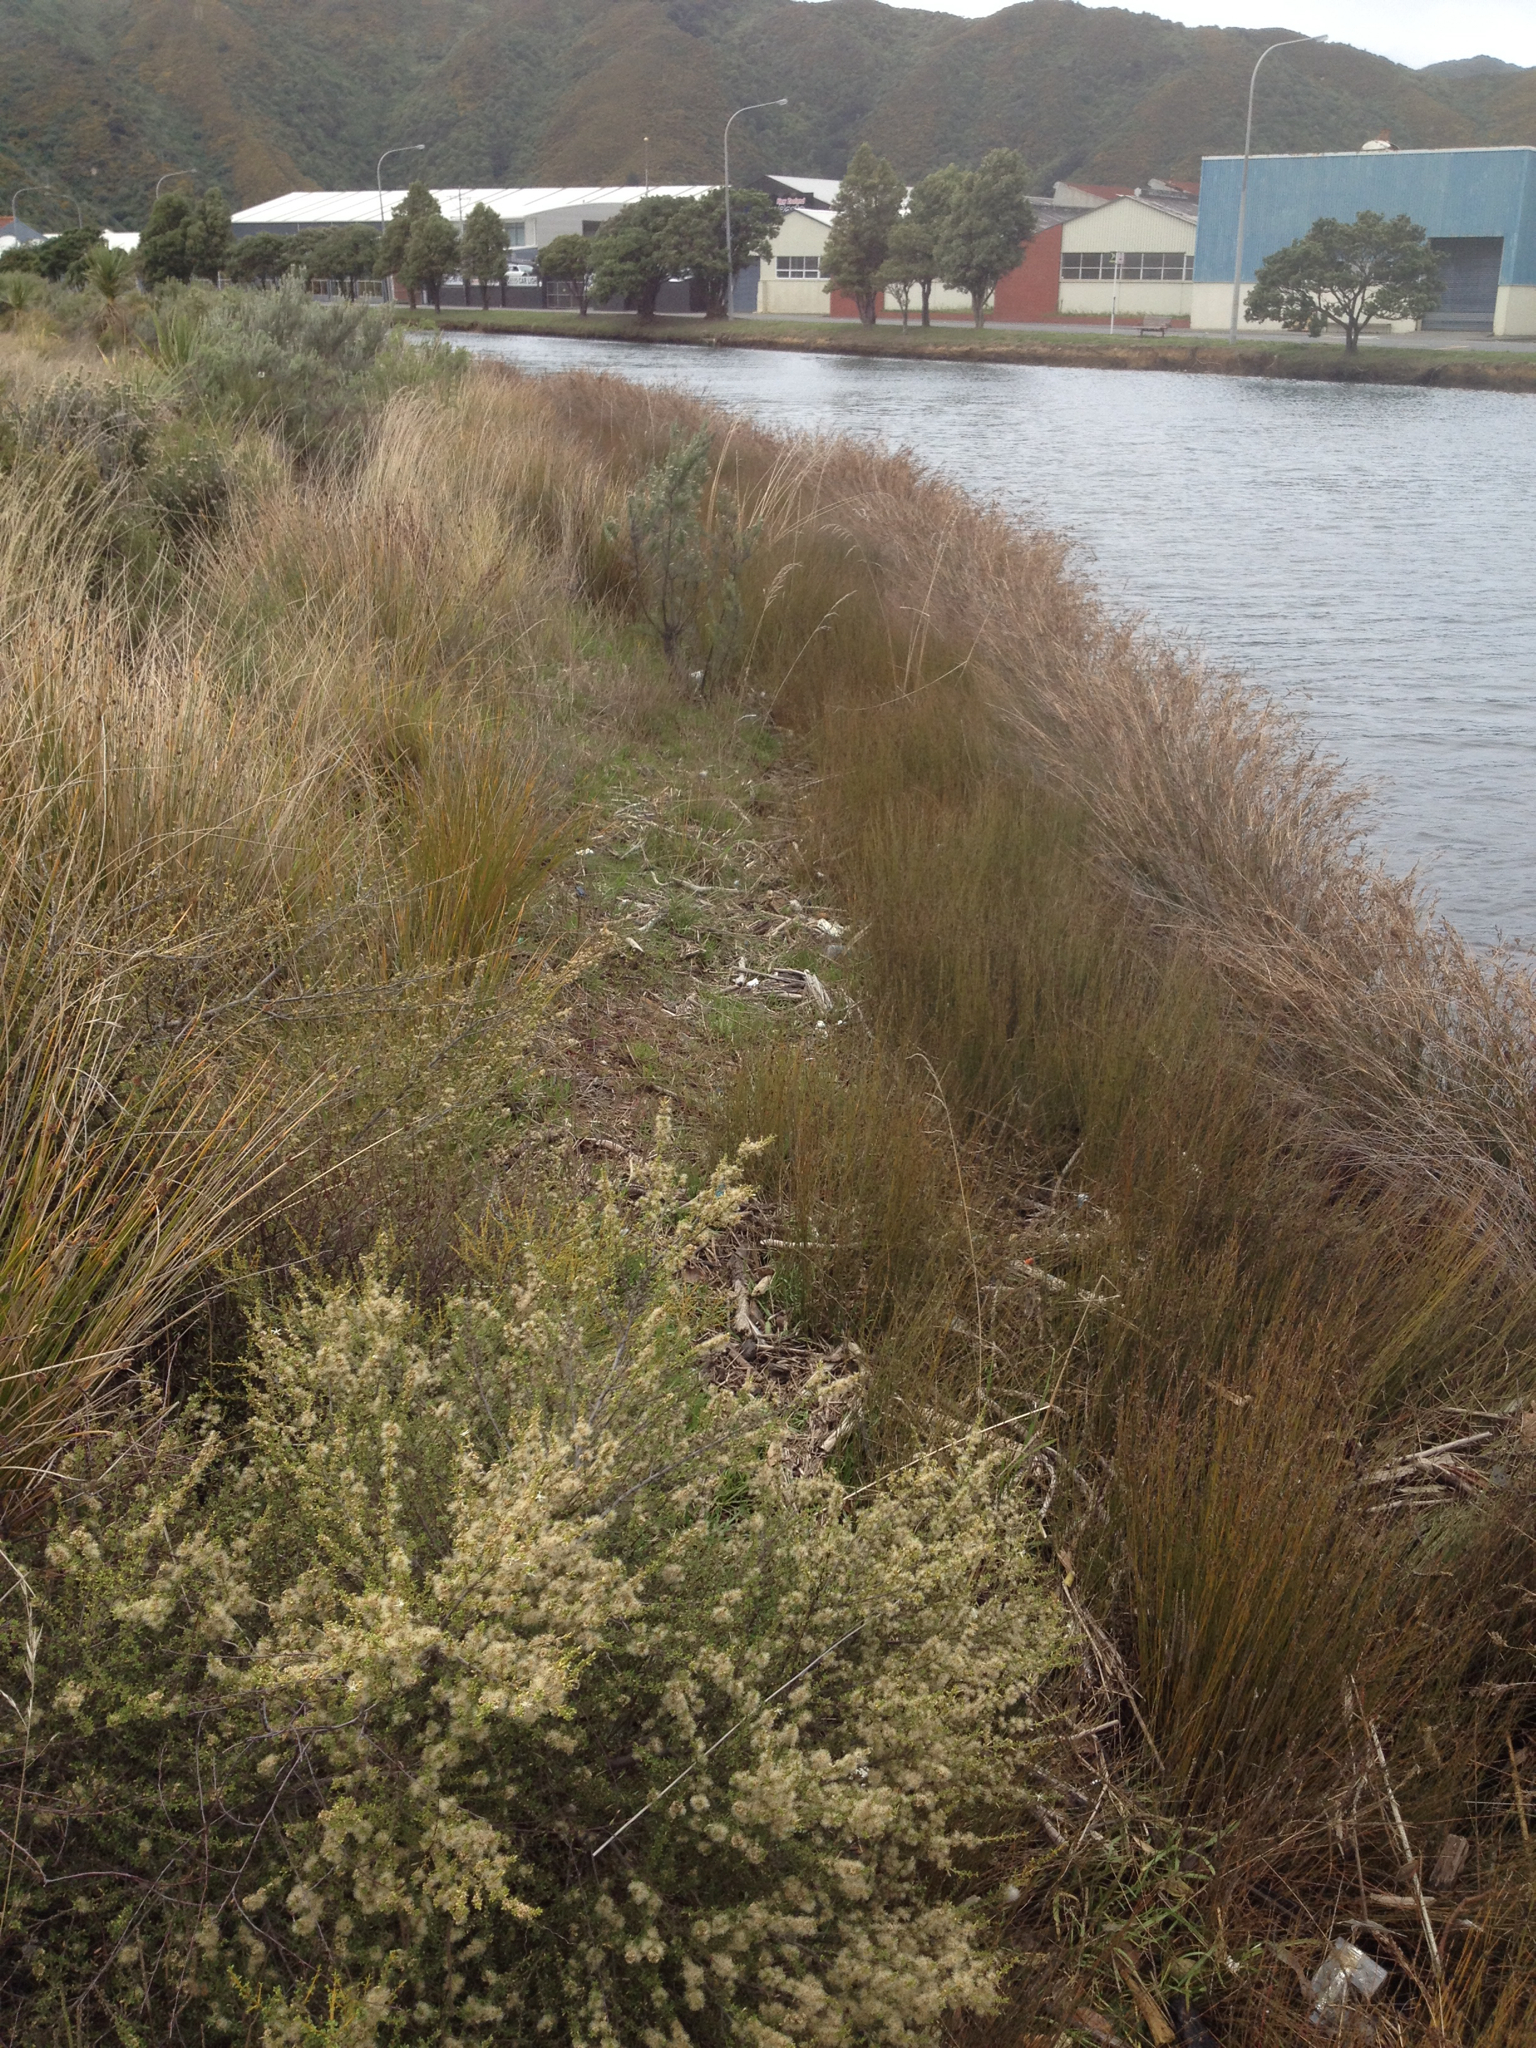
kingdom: Plantae
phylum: Tracheophyta
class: Liliopsida
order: Poales
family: Restionaceae
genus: Apodasmia
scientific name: Apodasmia similis
